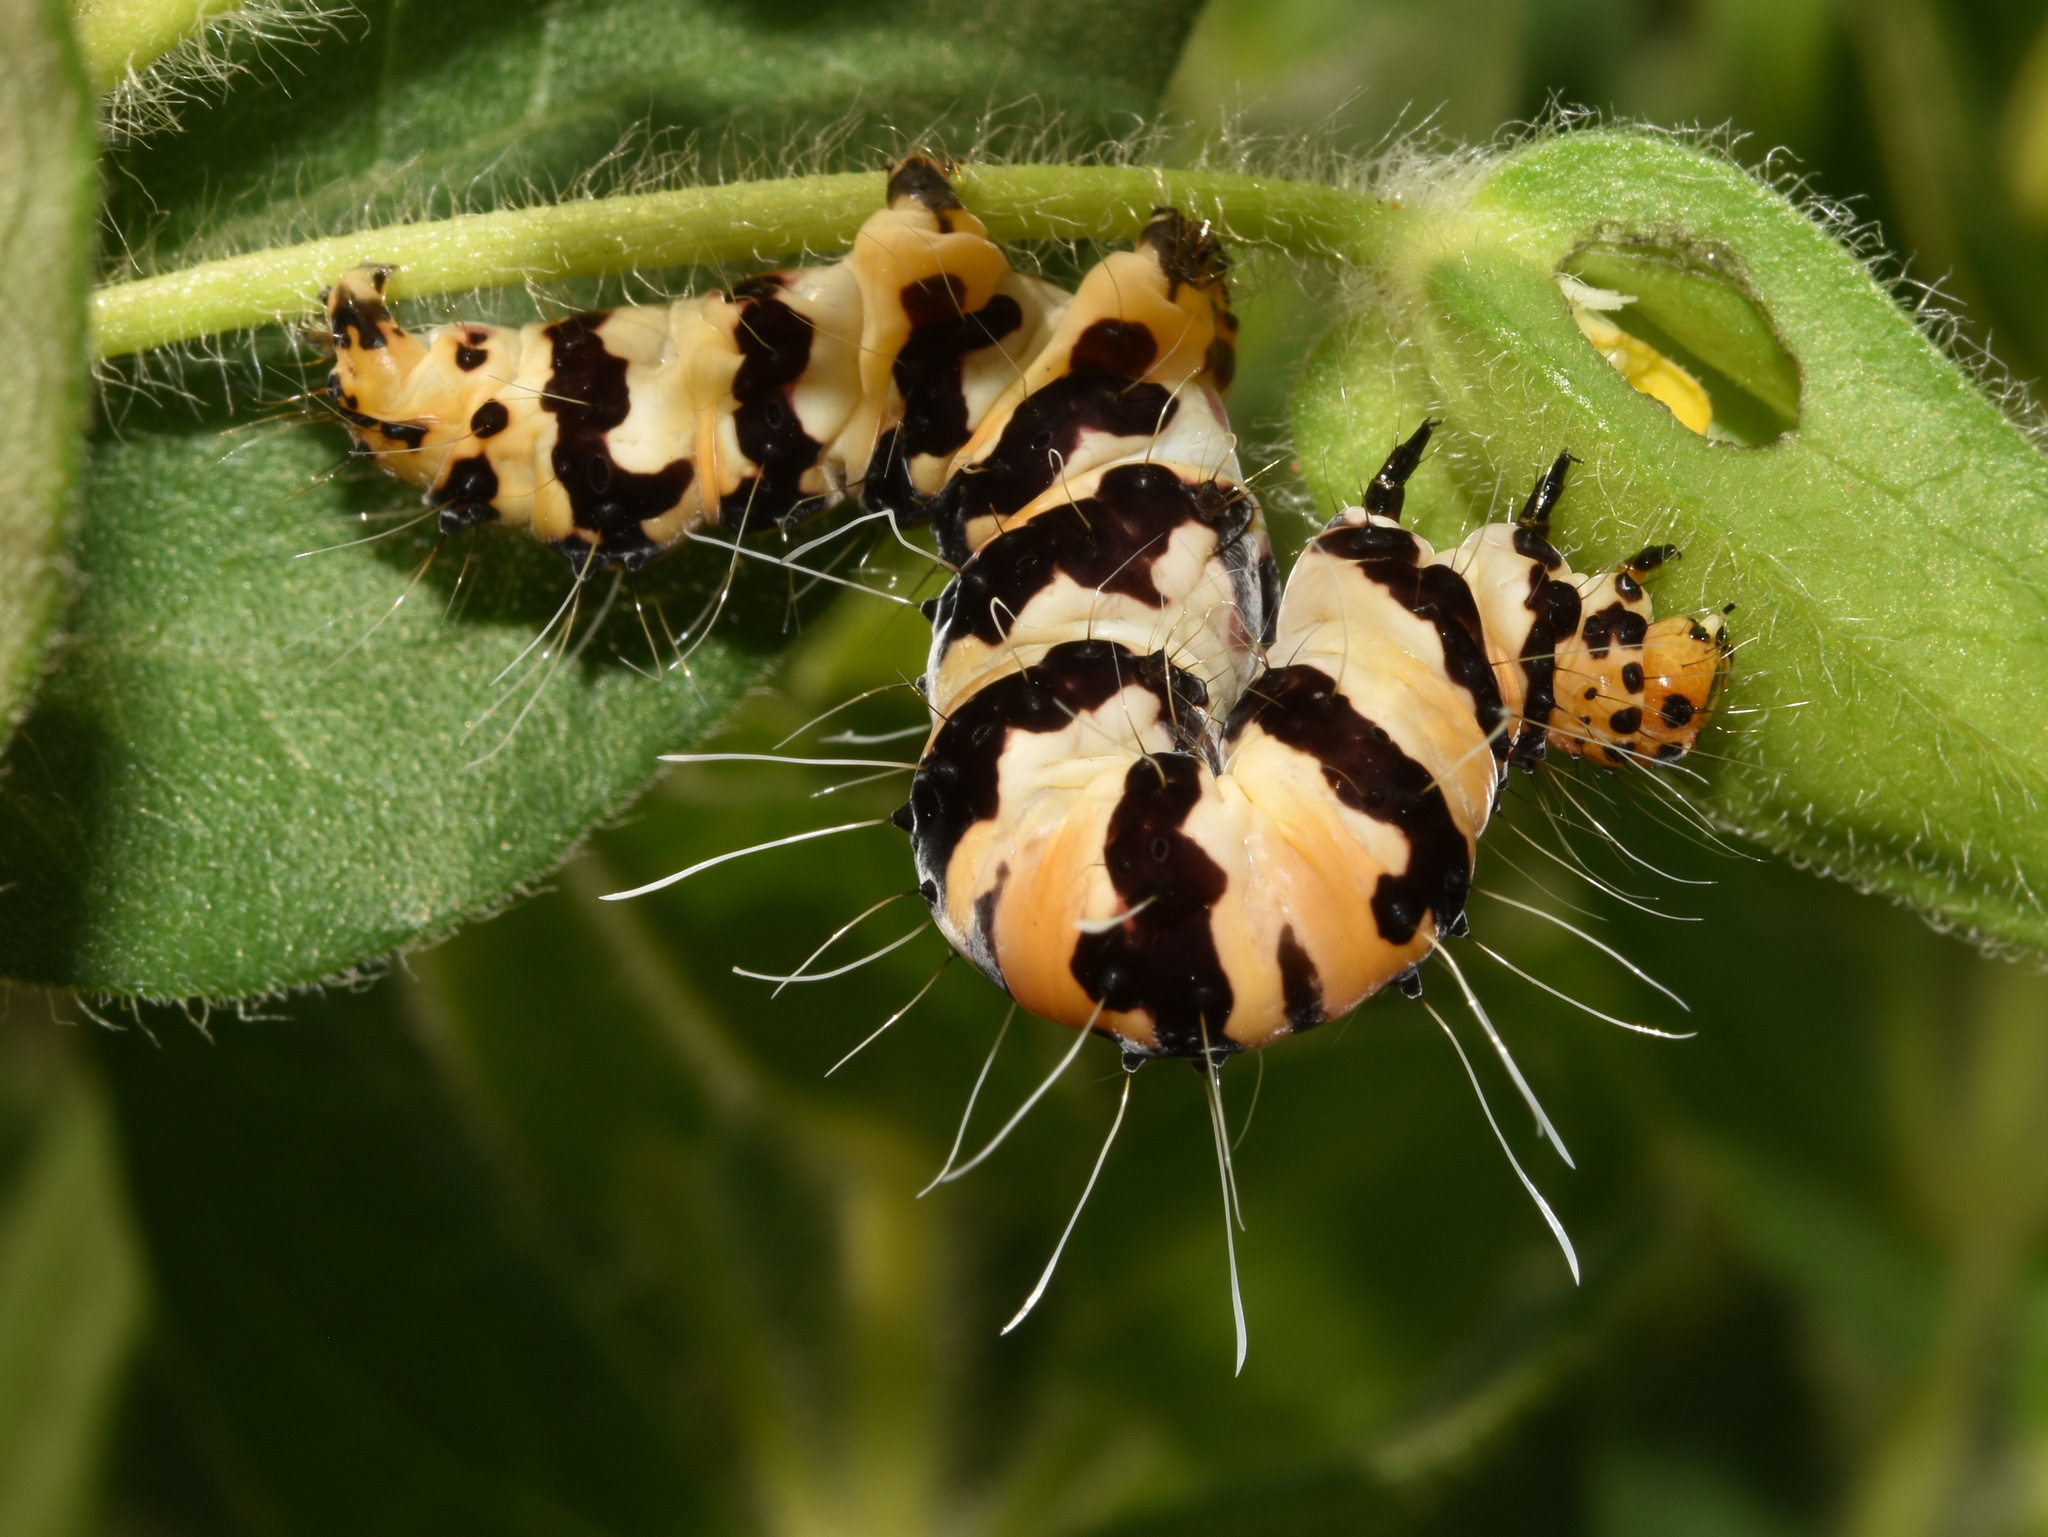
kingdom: Animalia
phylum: Arthropoda
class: Insecta
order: Lepidoptera
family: Erebidae
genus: Rhanidophora
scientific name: Rhanidophora phedonia
